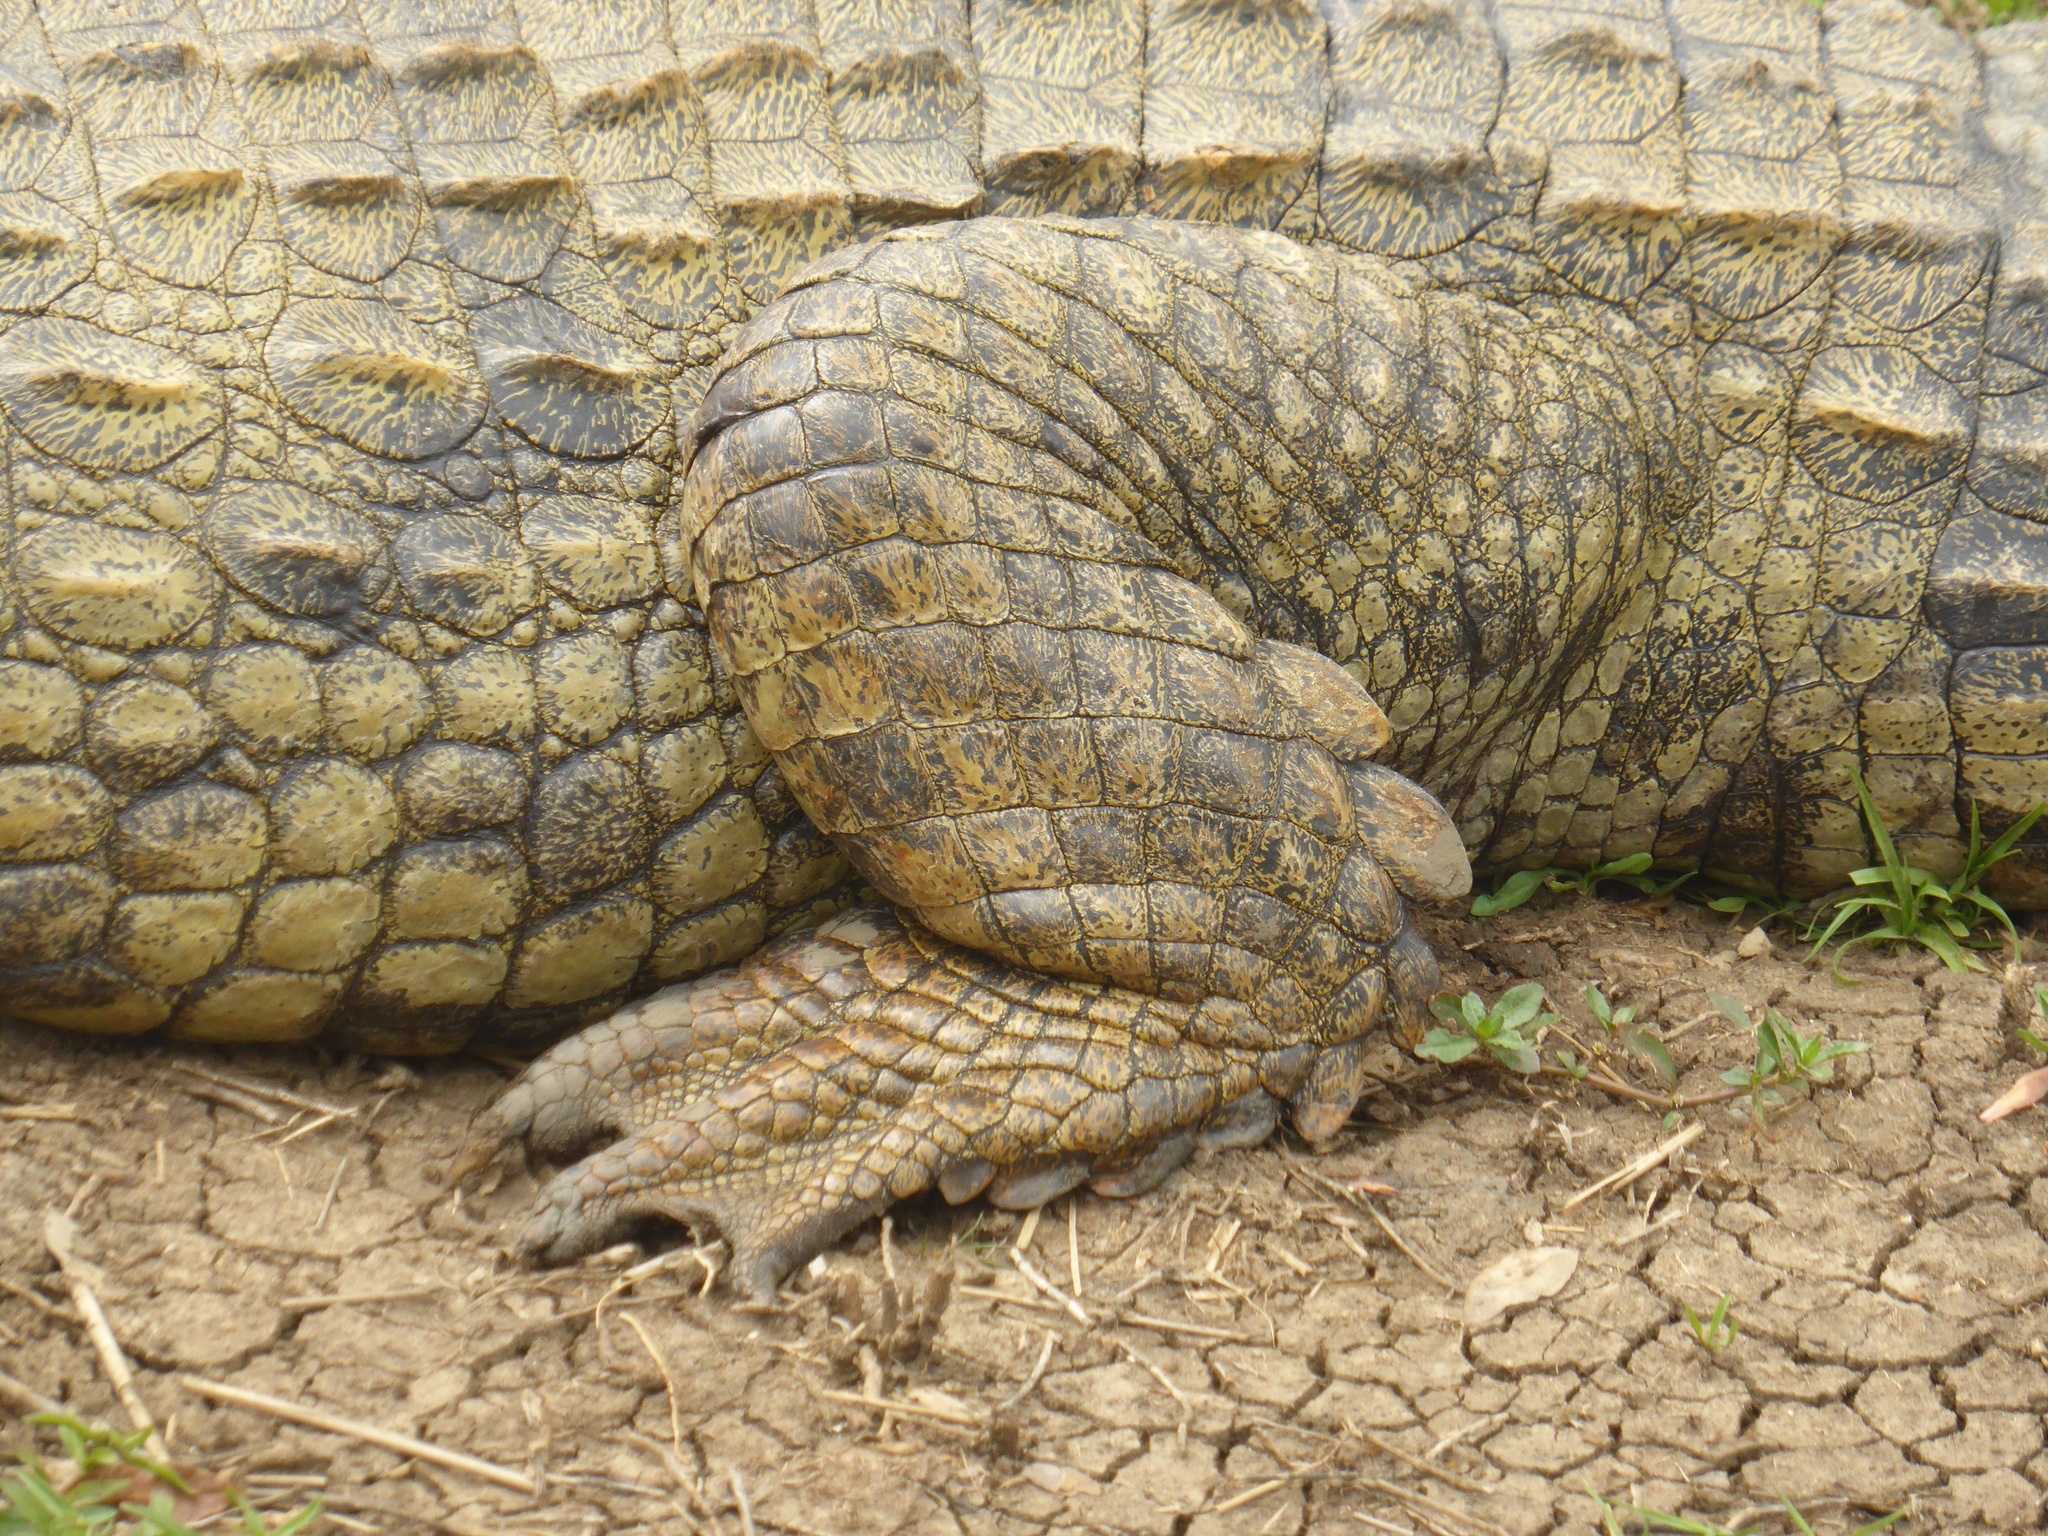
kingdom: Animalia
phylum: Chordata
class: Crocodylia
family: Crocodylidae
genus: Crocodylus
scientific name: Crocodylus niloticus
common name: Nile crocodile
